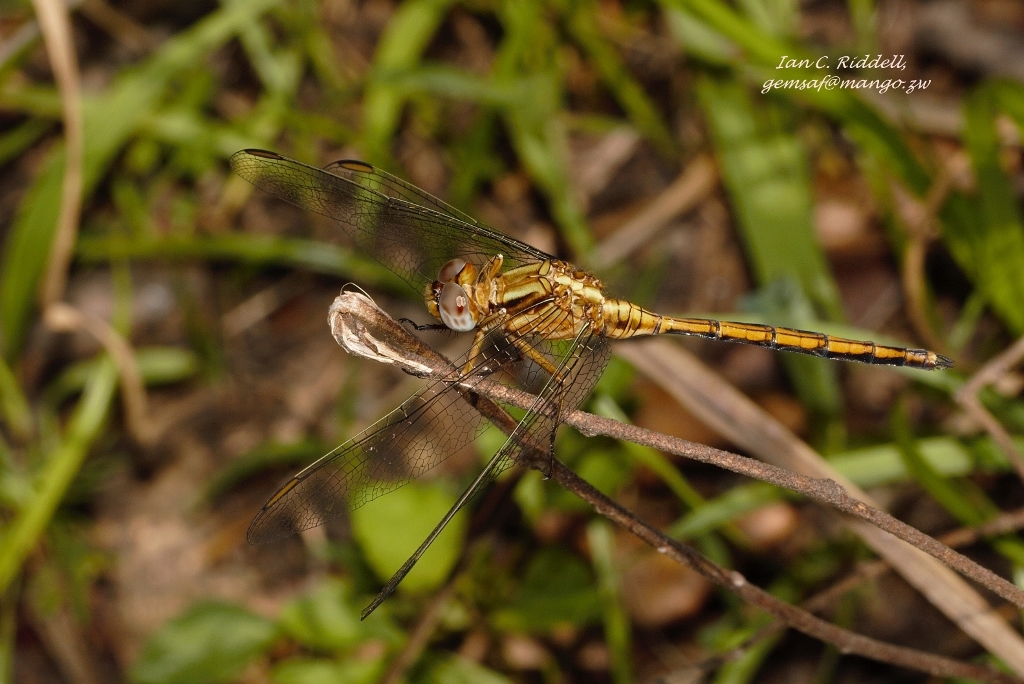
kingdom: Animalia
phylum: Arthropoda
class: Insecta
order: Odonata
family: Libellulidae
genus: Orthetrum
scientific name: Orthetrum machadoi
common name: Highland skimmer
